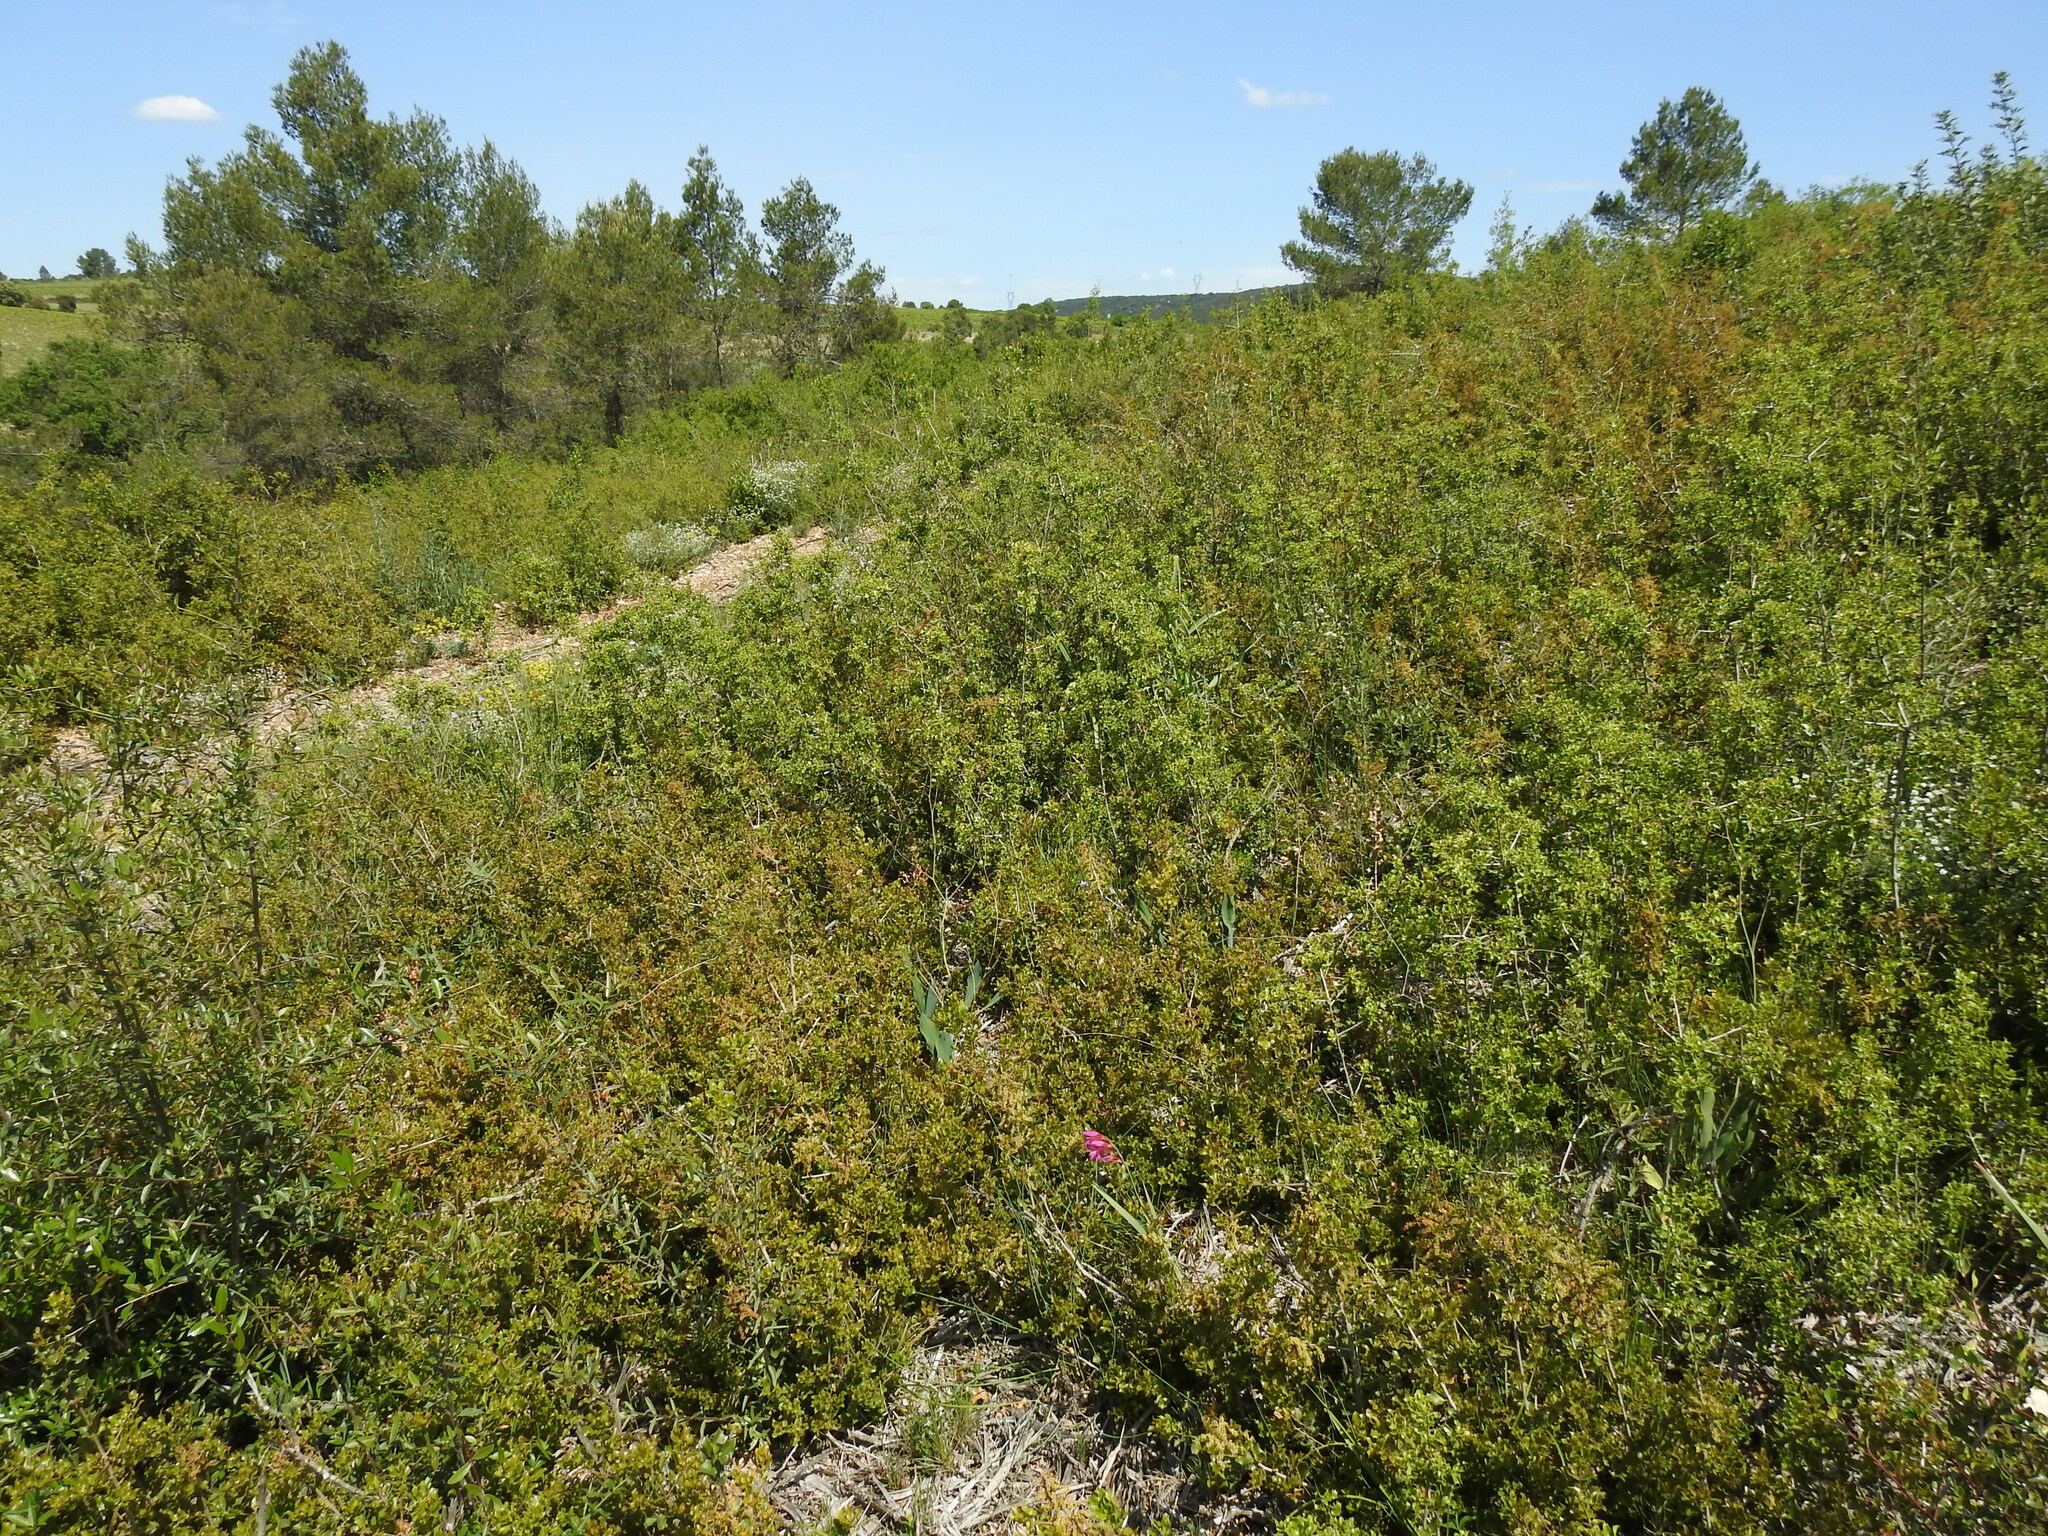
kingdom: Plantae
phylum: Tracheophyta
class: Liliopsida
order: Asparagales
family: Iridaceae
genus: Gladiolus
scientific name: Gladiolus dubius
